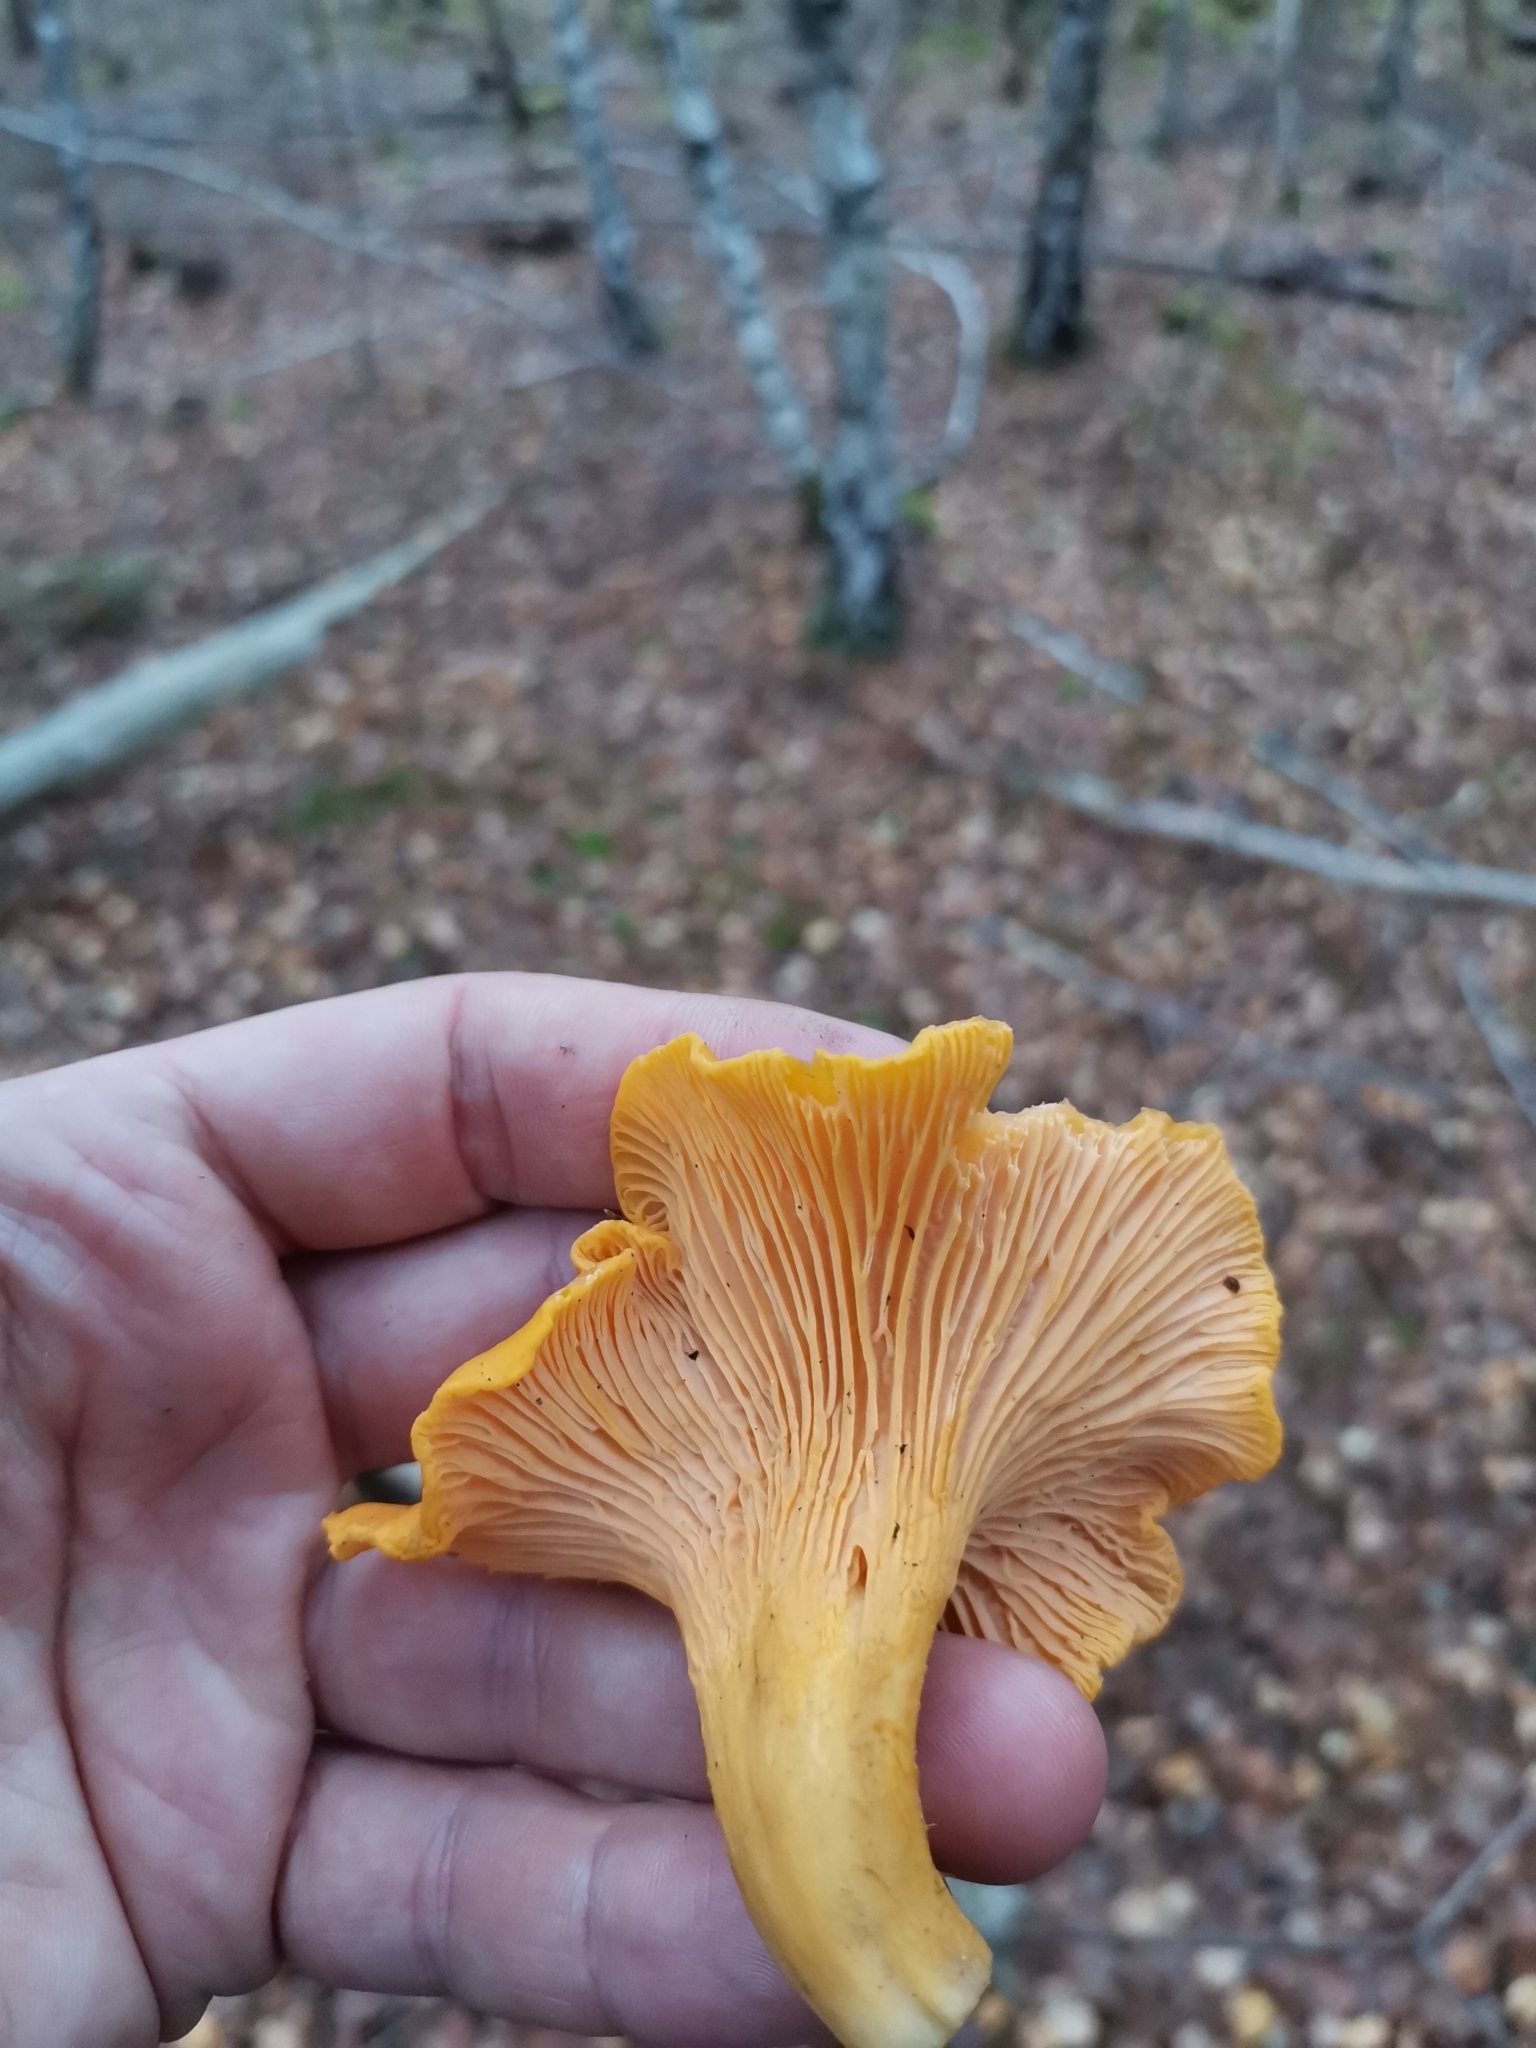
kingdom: Fungi
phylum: Basidiomycota
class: Agaricomycetes
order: Cantharellales
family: Hydnaceae
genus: Cantharellus
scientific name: Cantharellus cibarius
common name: Chanterelle
